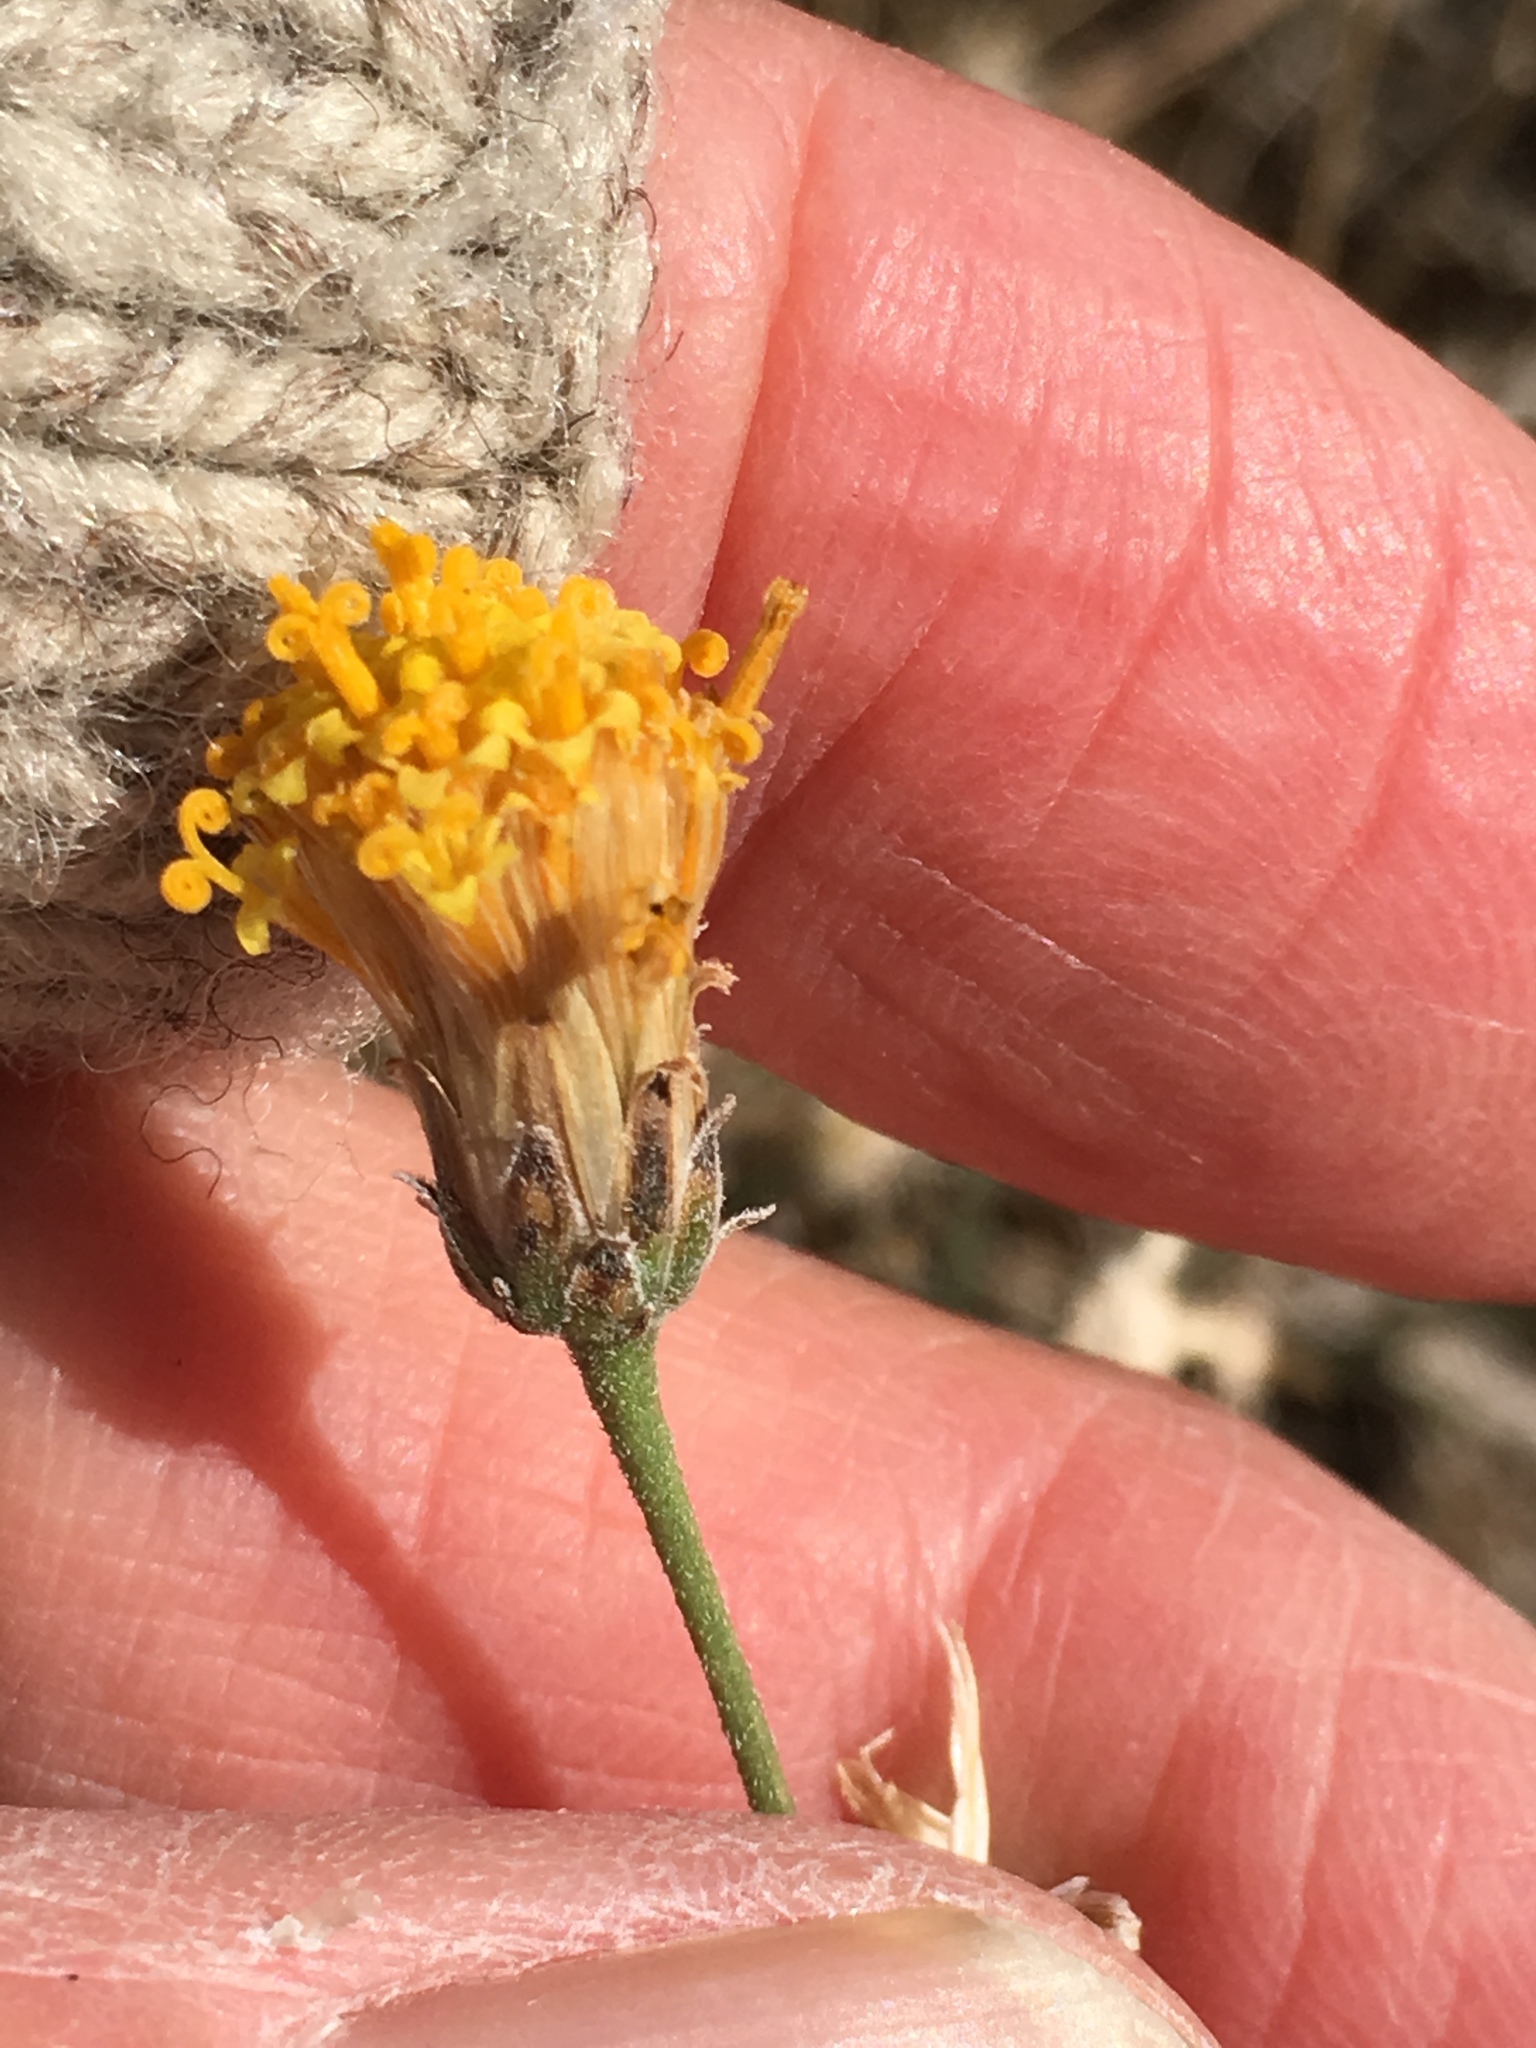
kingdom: Plantae
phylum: Tracheophyta
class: Magnoliopsida
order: Asterales
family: Asteraceae
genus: Bebbia
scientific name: Bebbia juncea
